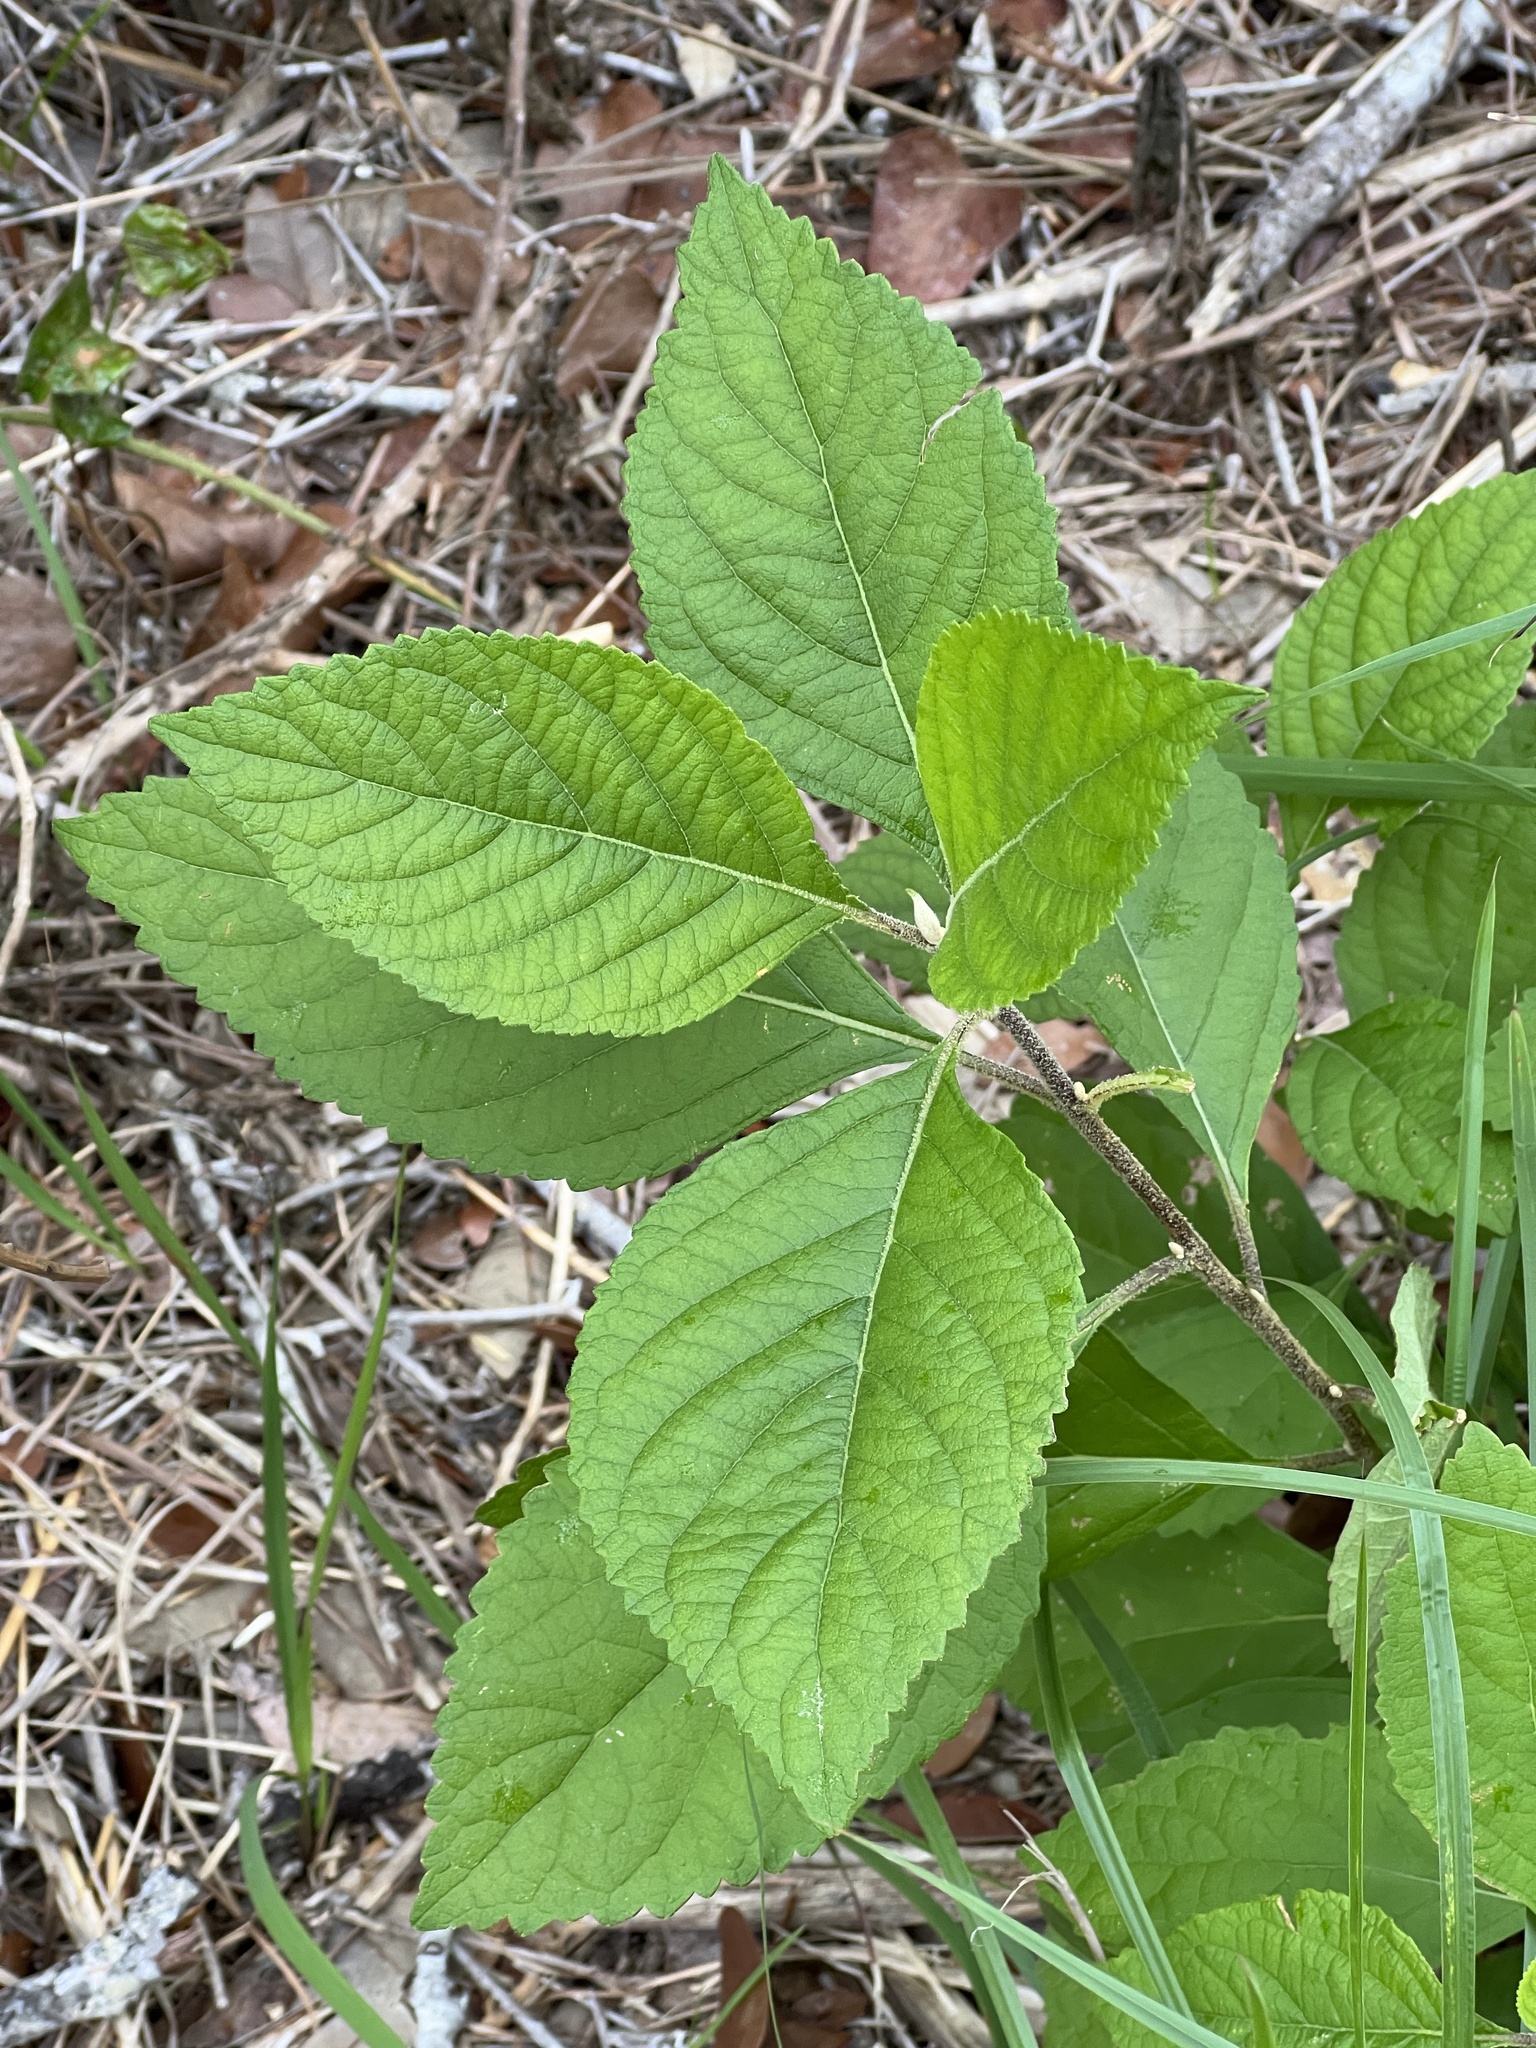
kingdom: Plantae
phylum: Tracheophyta
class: Magnoliopsida
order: Lamiales
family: Lamiaceae
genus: Callicarpa
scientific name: Callicarpa americana
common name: American beautyberry
